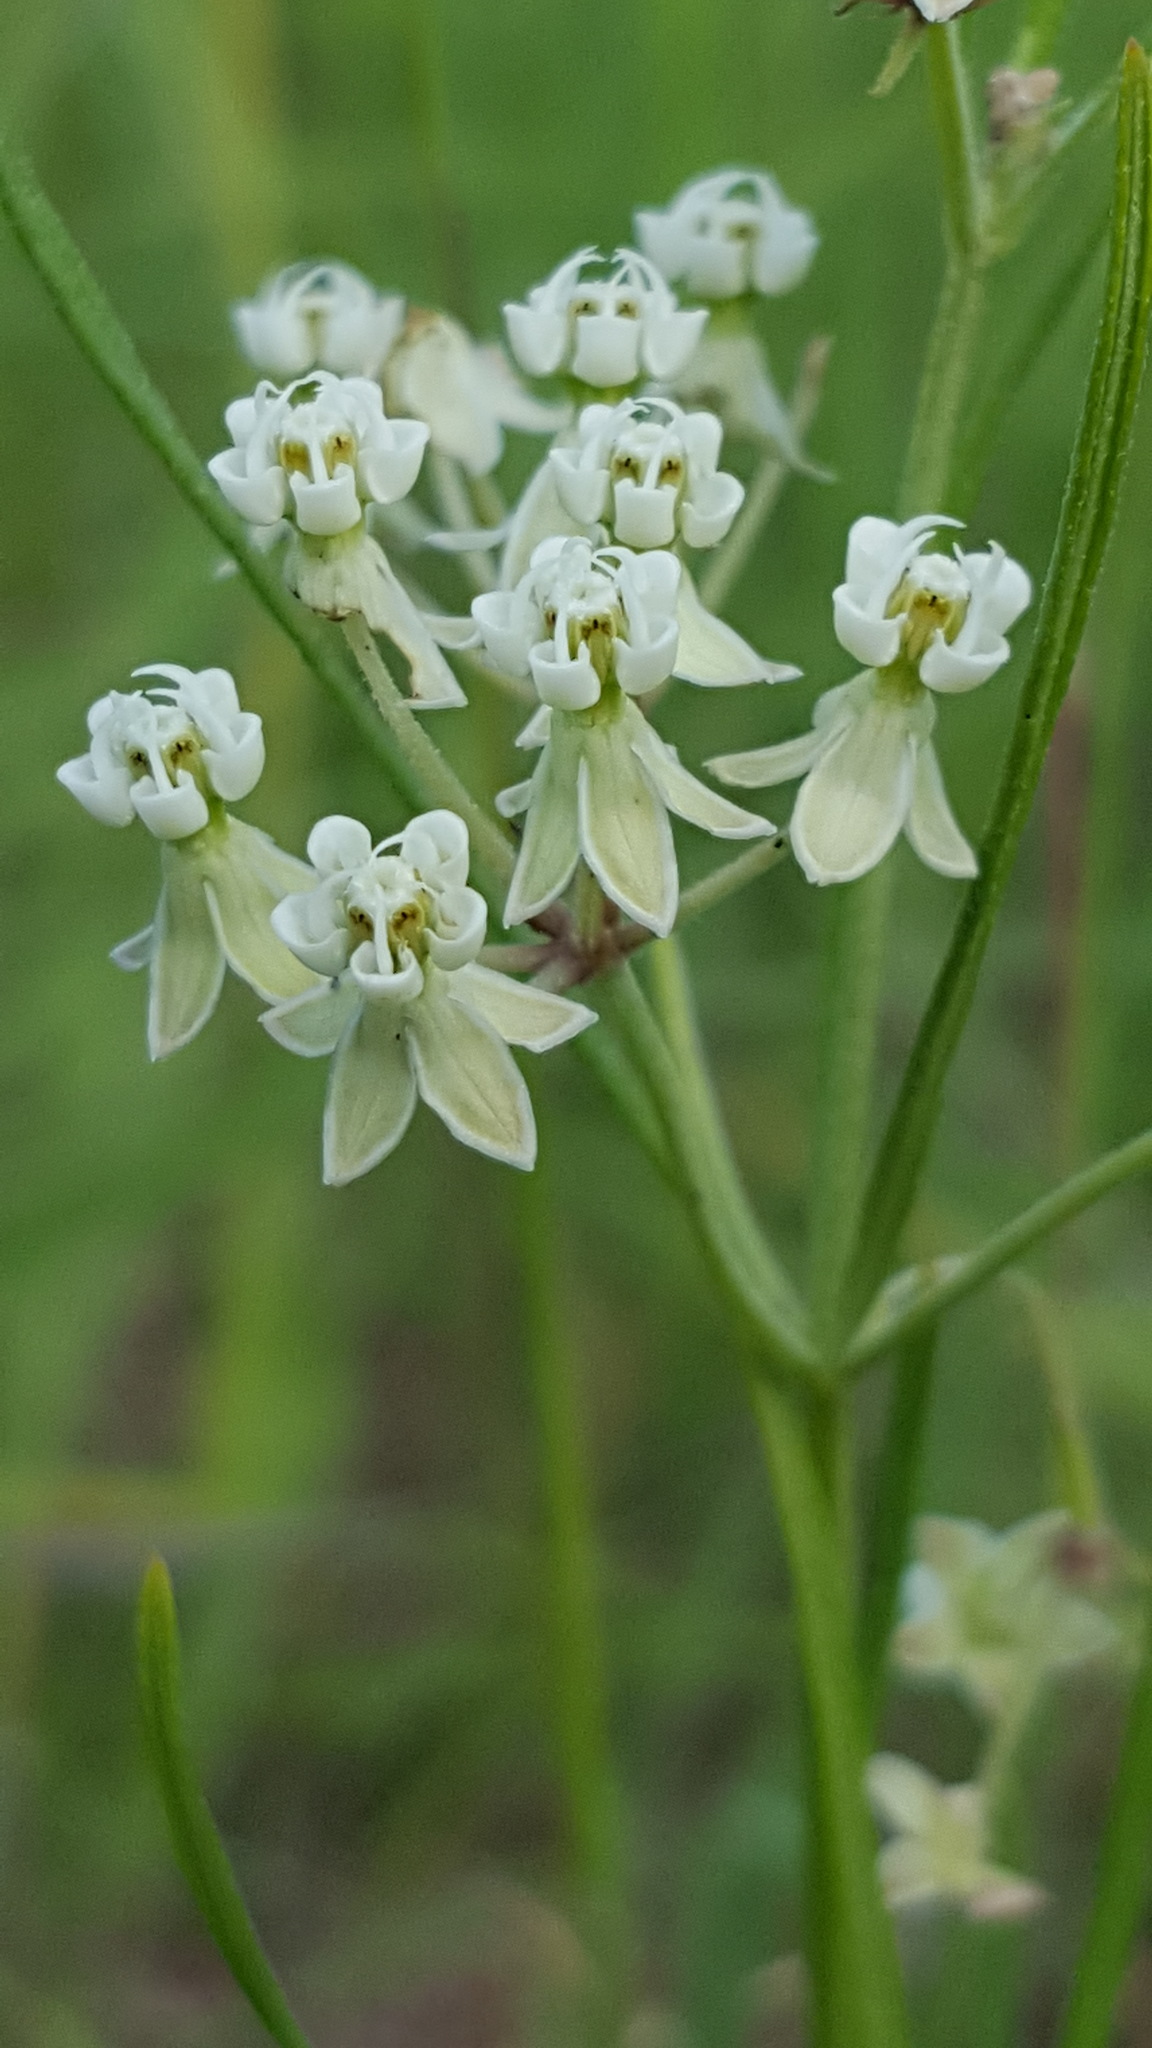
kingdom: Plantae
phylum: Tracheophyta
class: Magnoliopsida
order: Gentianales
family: Apocynaceae
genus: Asclepias
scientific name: Asclepias verticillata
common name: Eastern whorled milkweed
